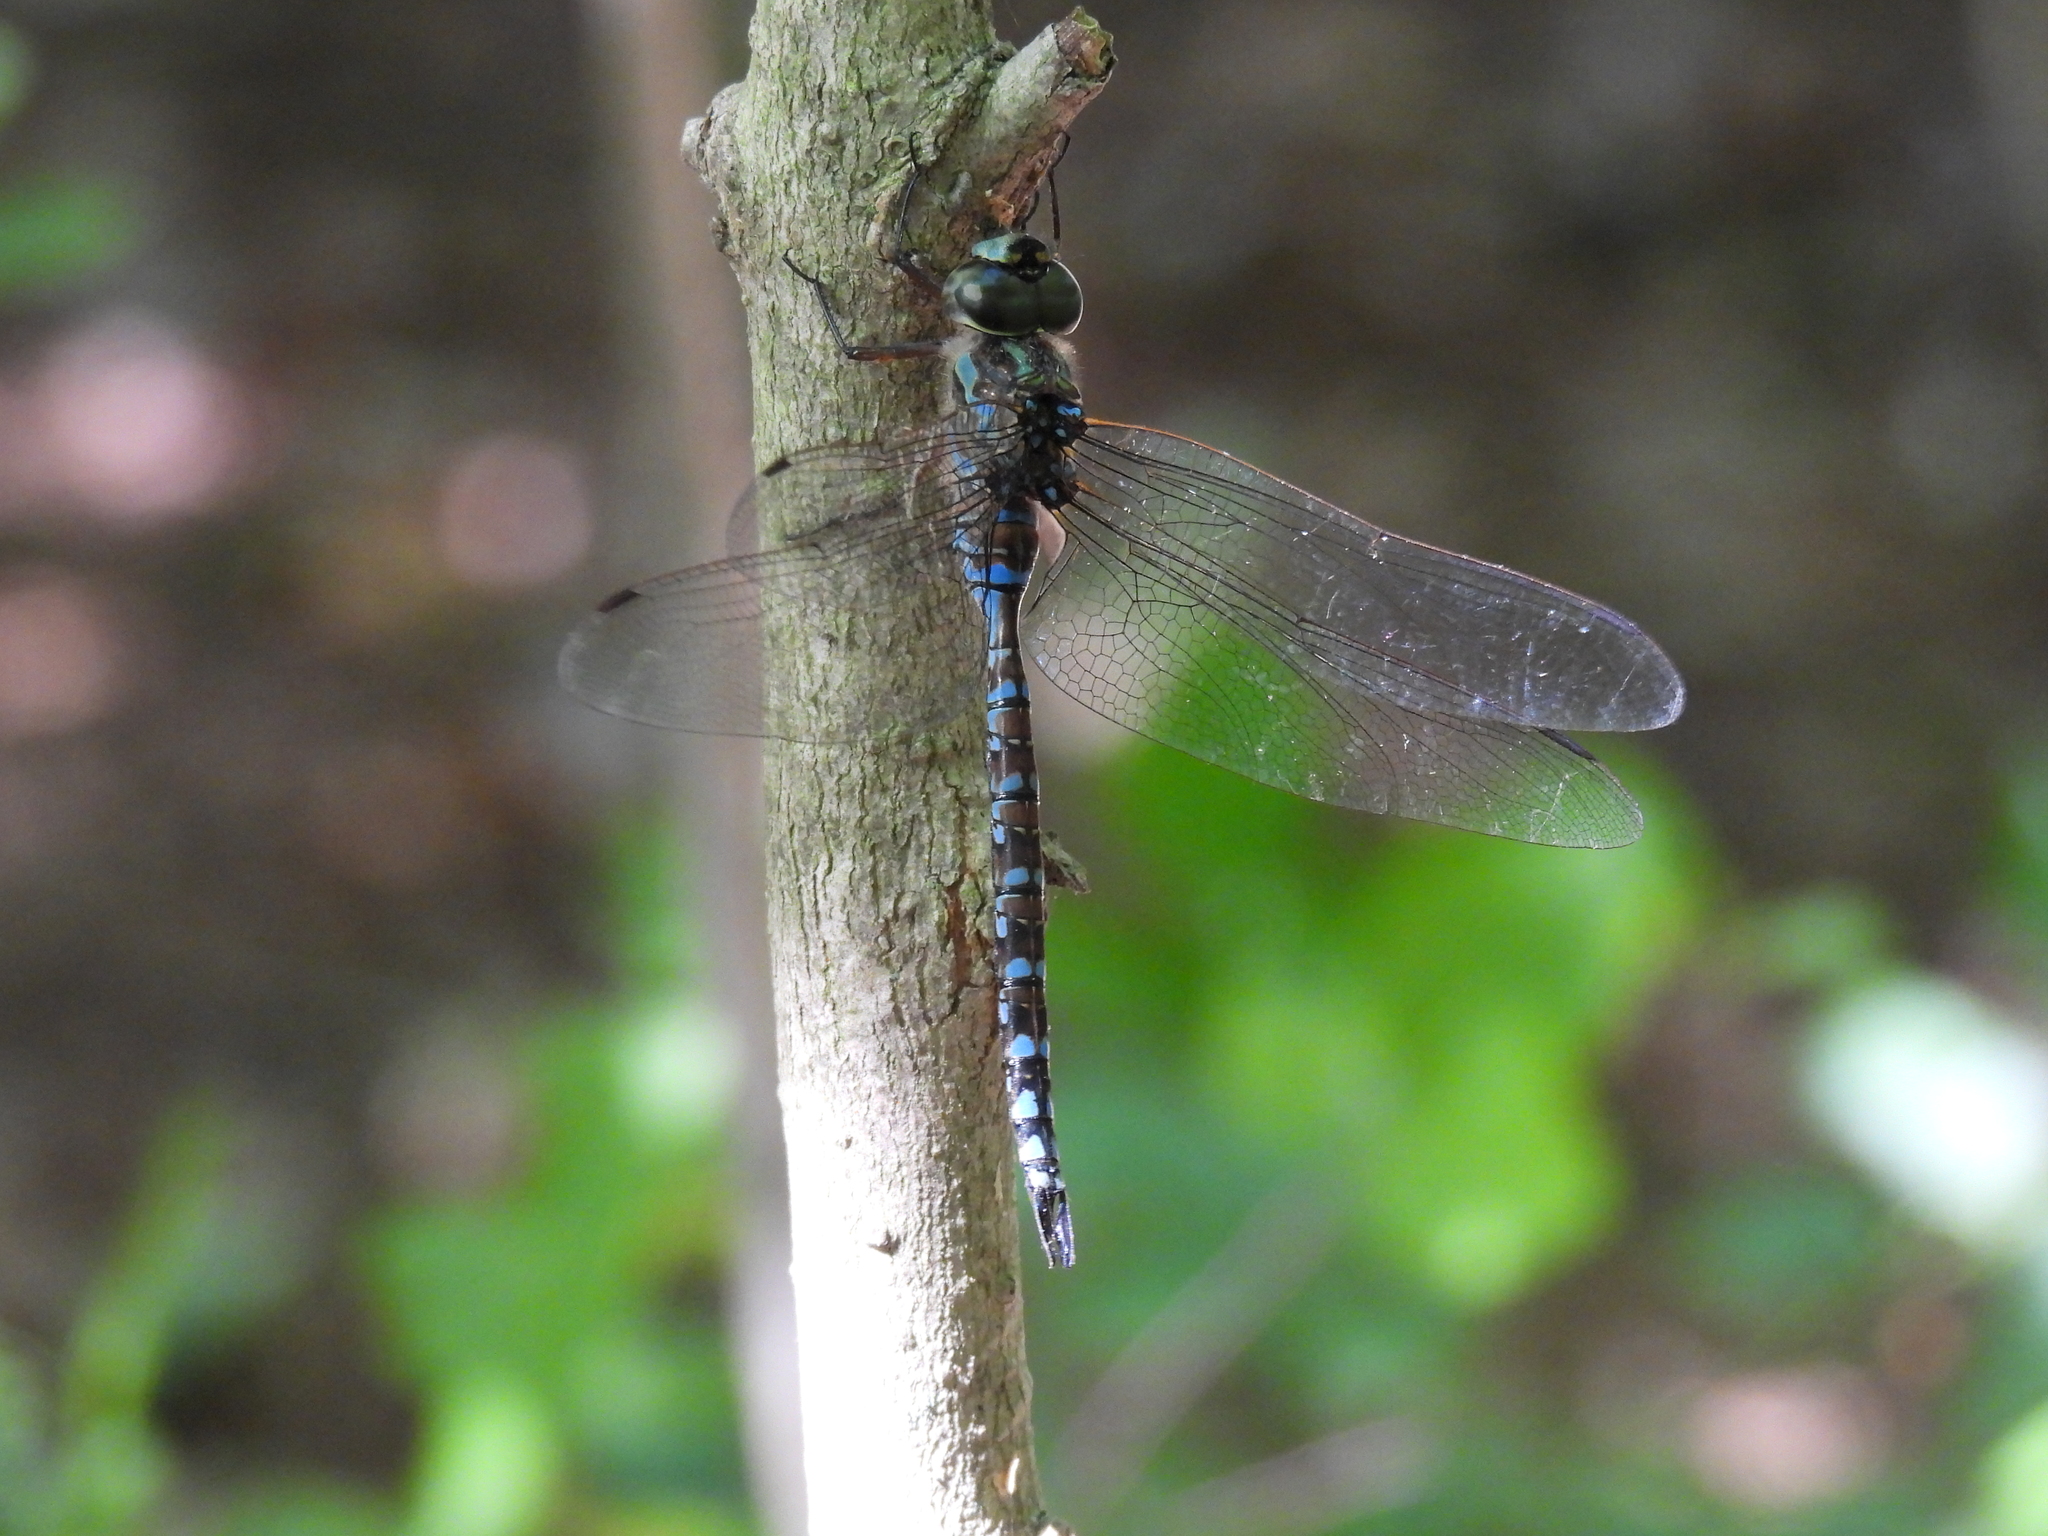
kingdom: Animalia
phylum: Arthropoda
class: Insecta
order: Odonata
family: Aeshnidae
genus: Aeshna
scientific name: Aeshna canadensis
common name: Canada darner
